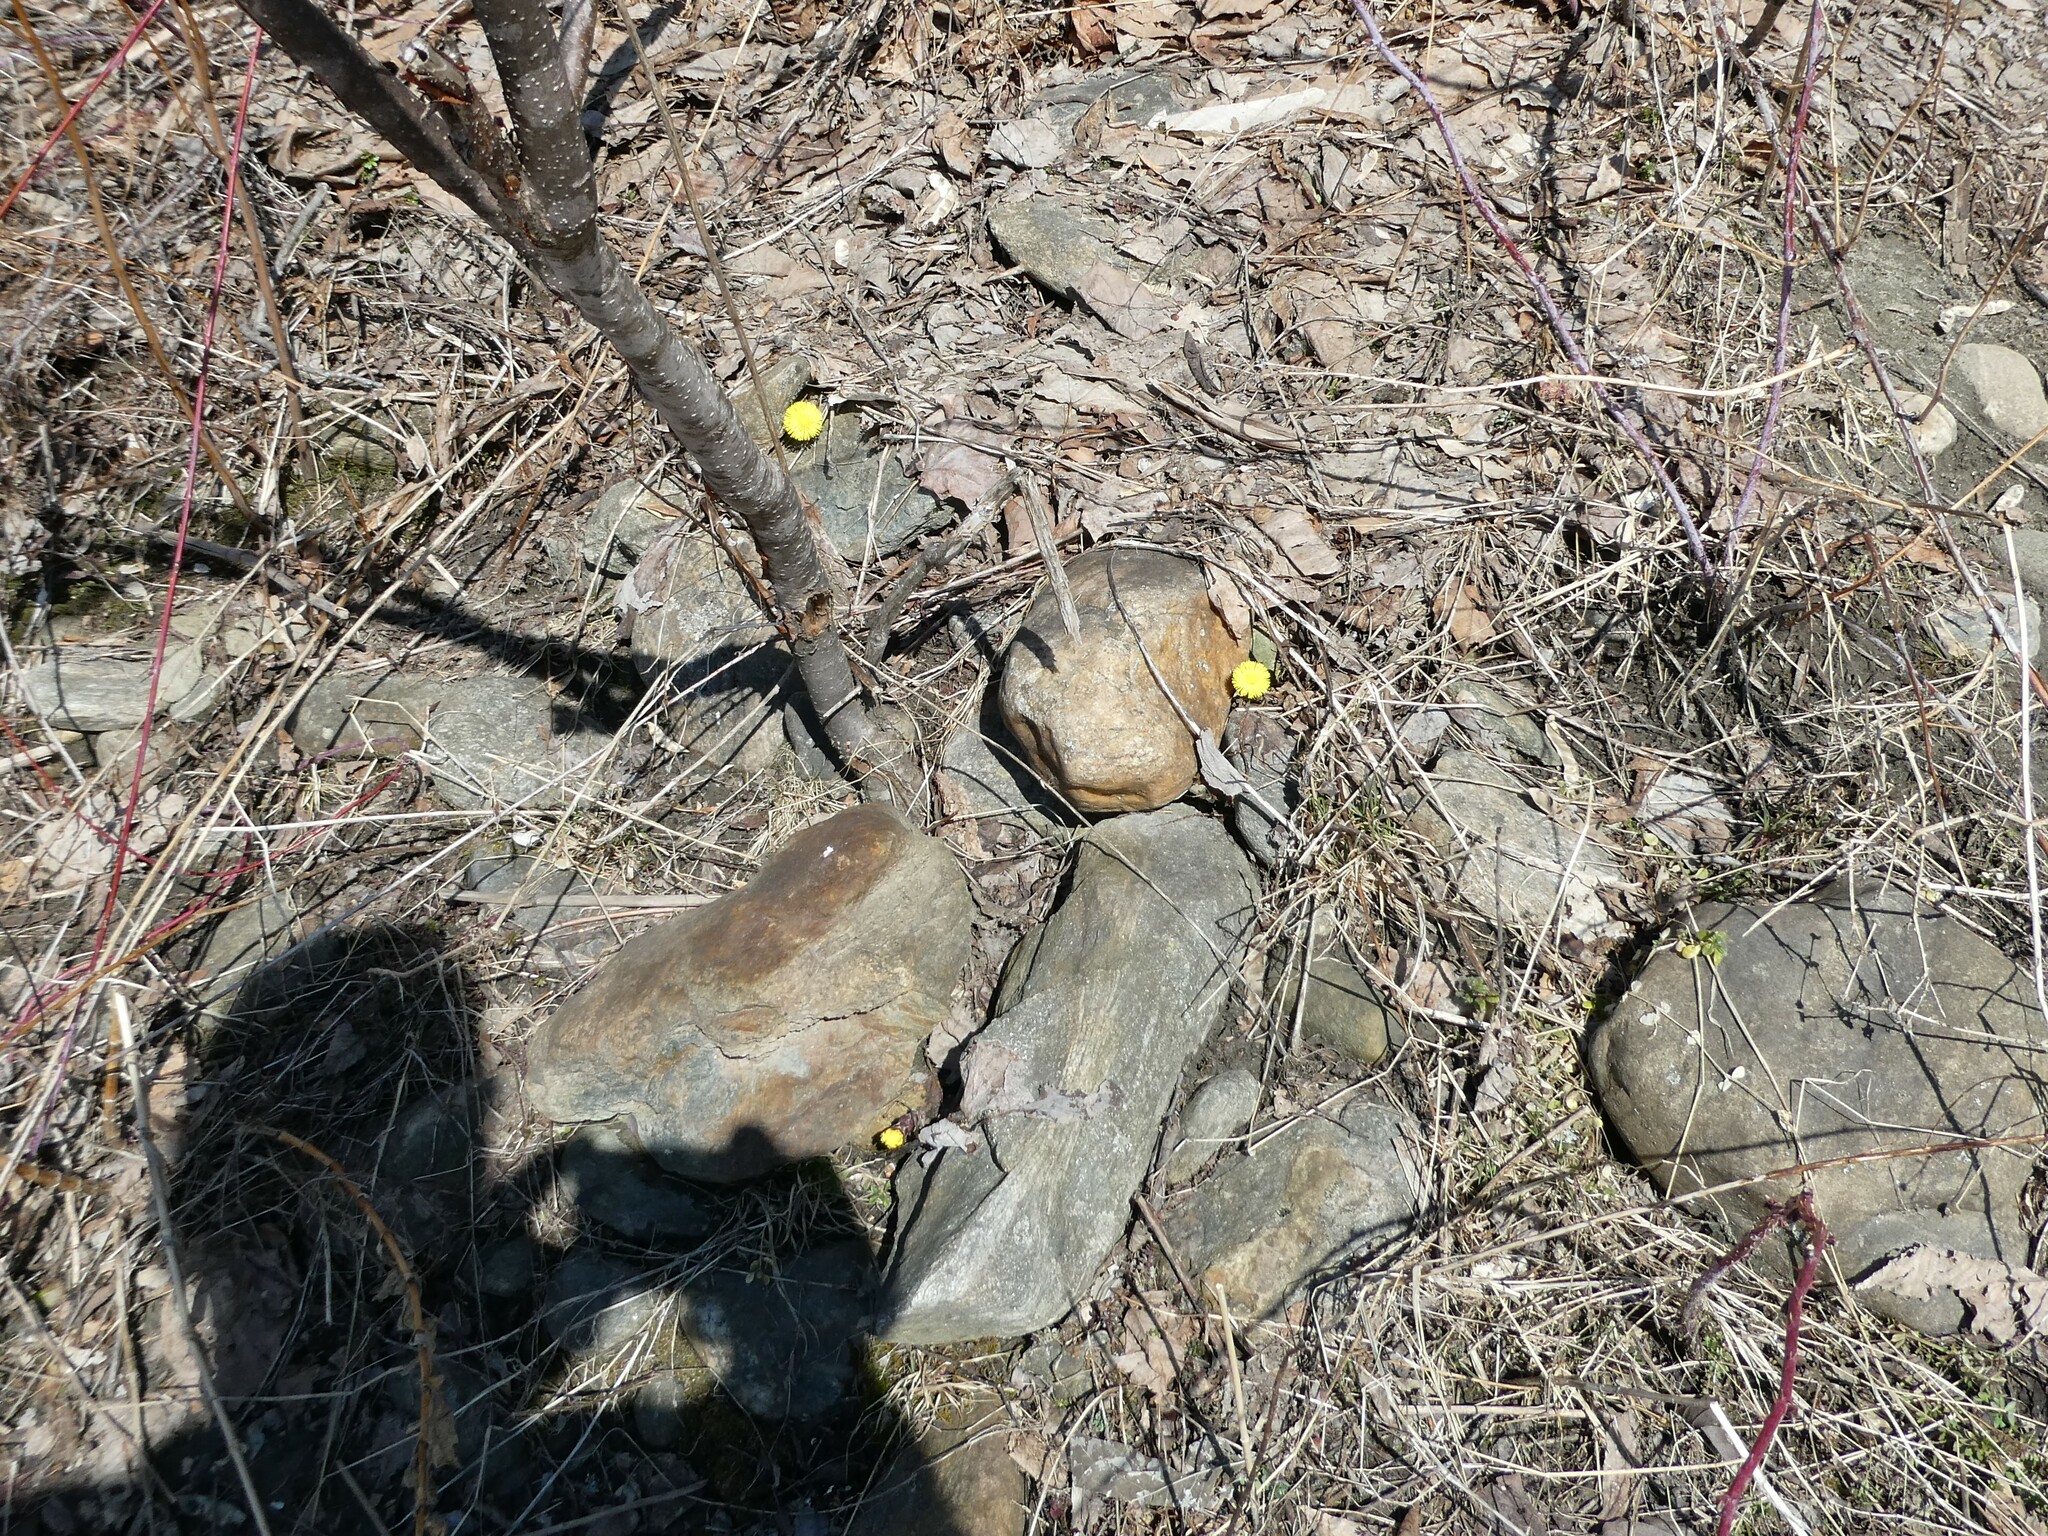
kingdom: Plantae
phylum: Tracheophyta
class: Magnoliopsida
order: Asterales
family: Asteraceae
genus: Tussilago
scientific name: Tussilago farfara
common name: Coltsfoot
